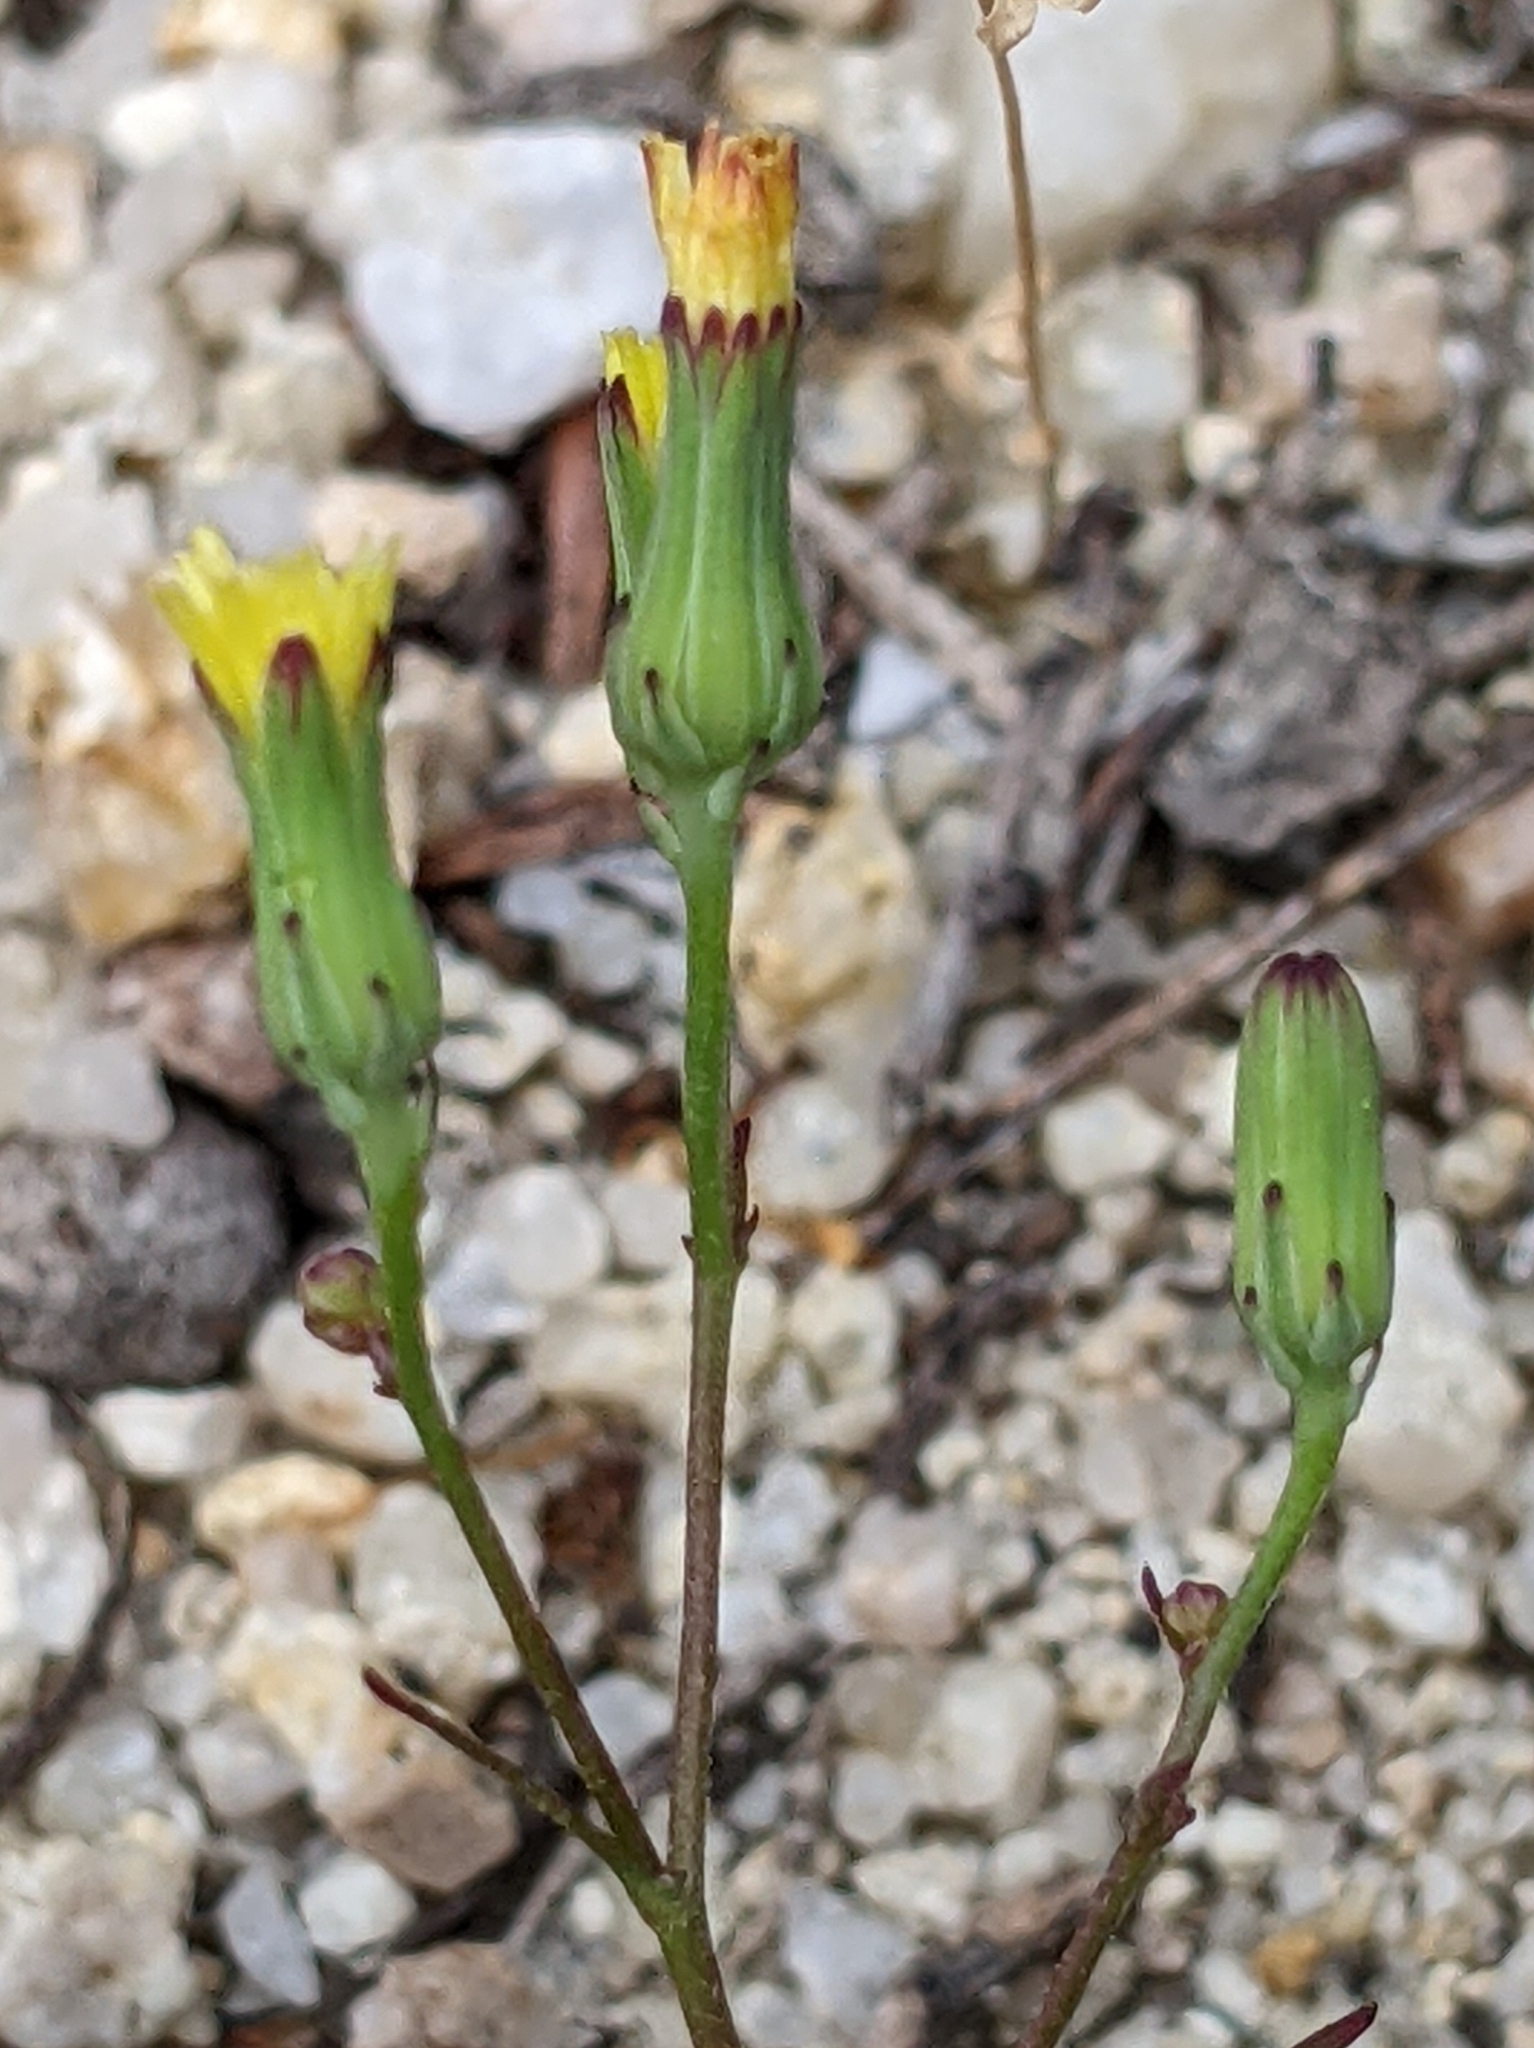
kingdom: Plantae
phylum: Tracheophyta
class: Magnoliopsida
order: Asterales
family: Asteraceae
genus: Malacothrix
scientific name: Malacothrix clevelandii
